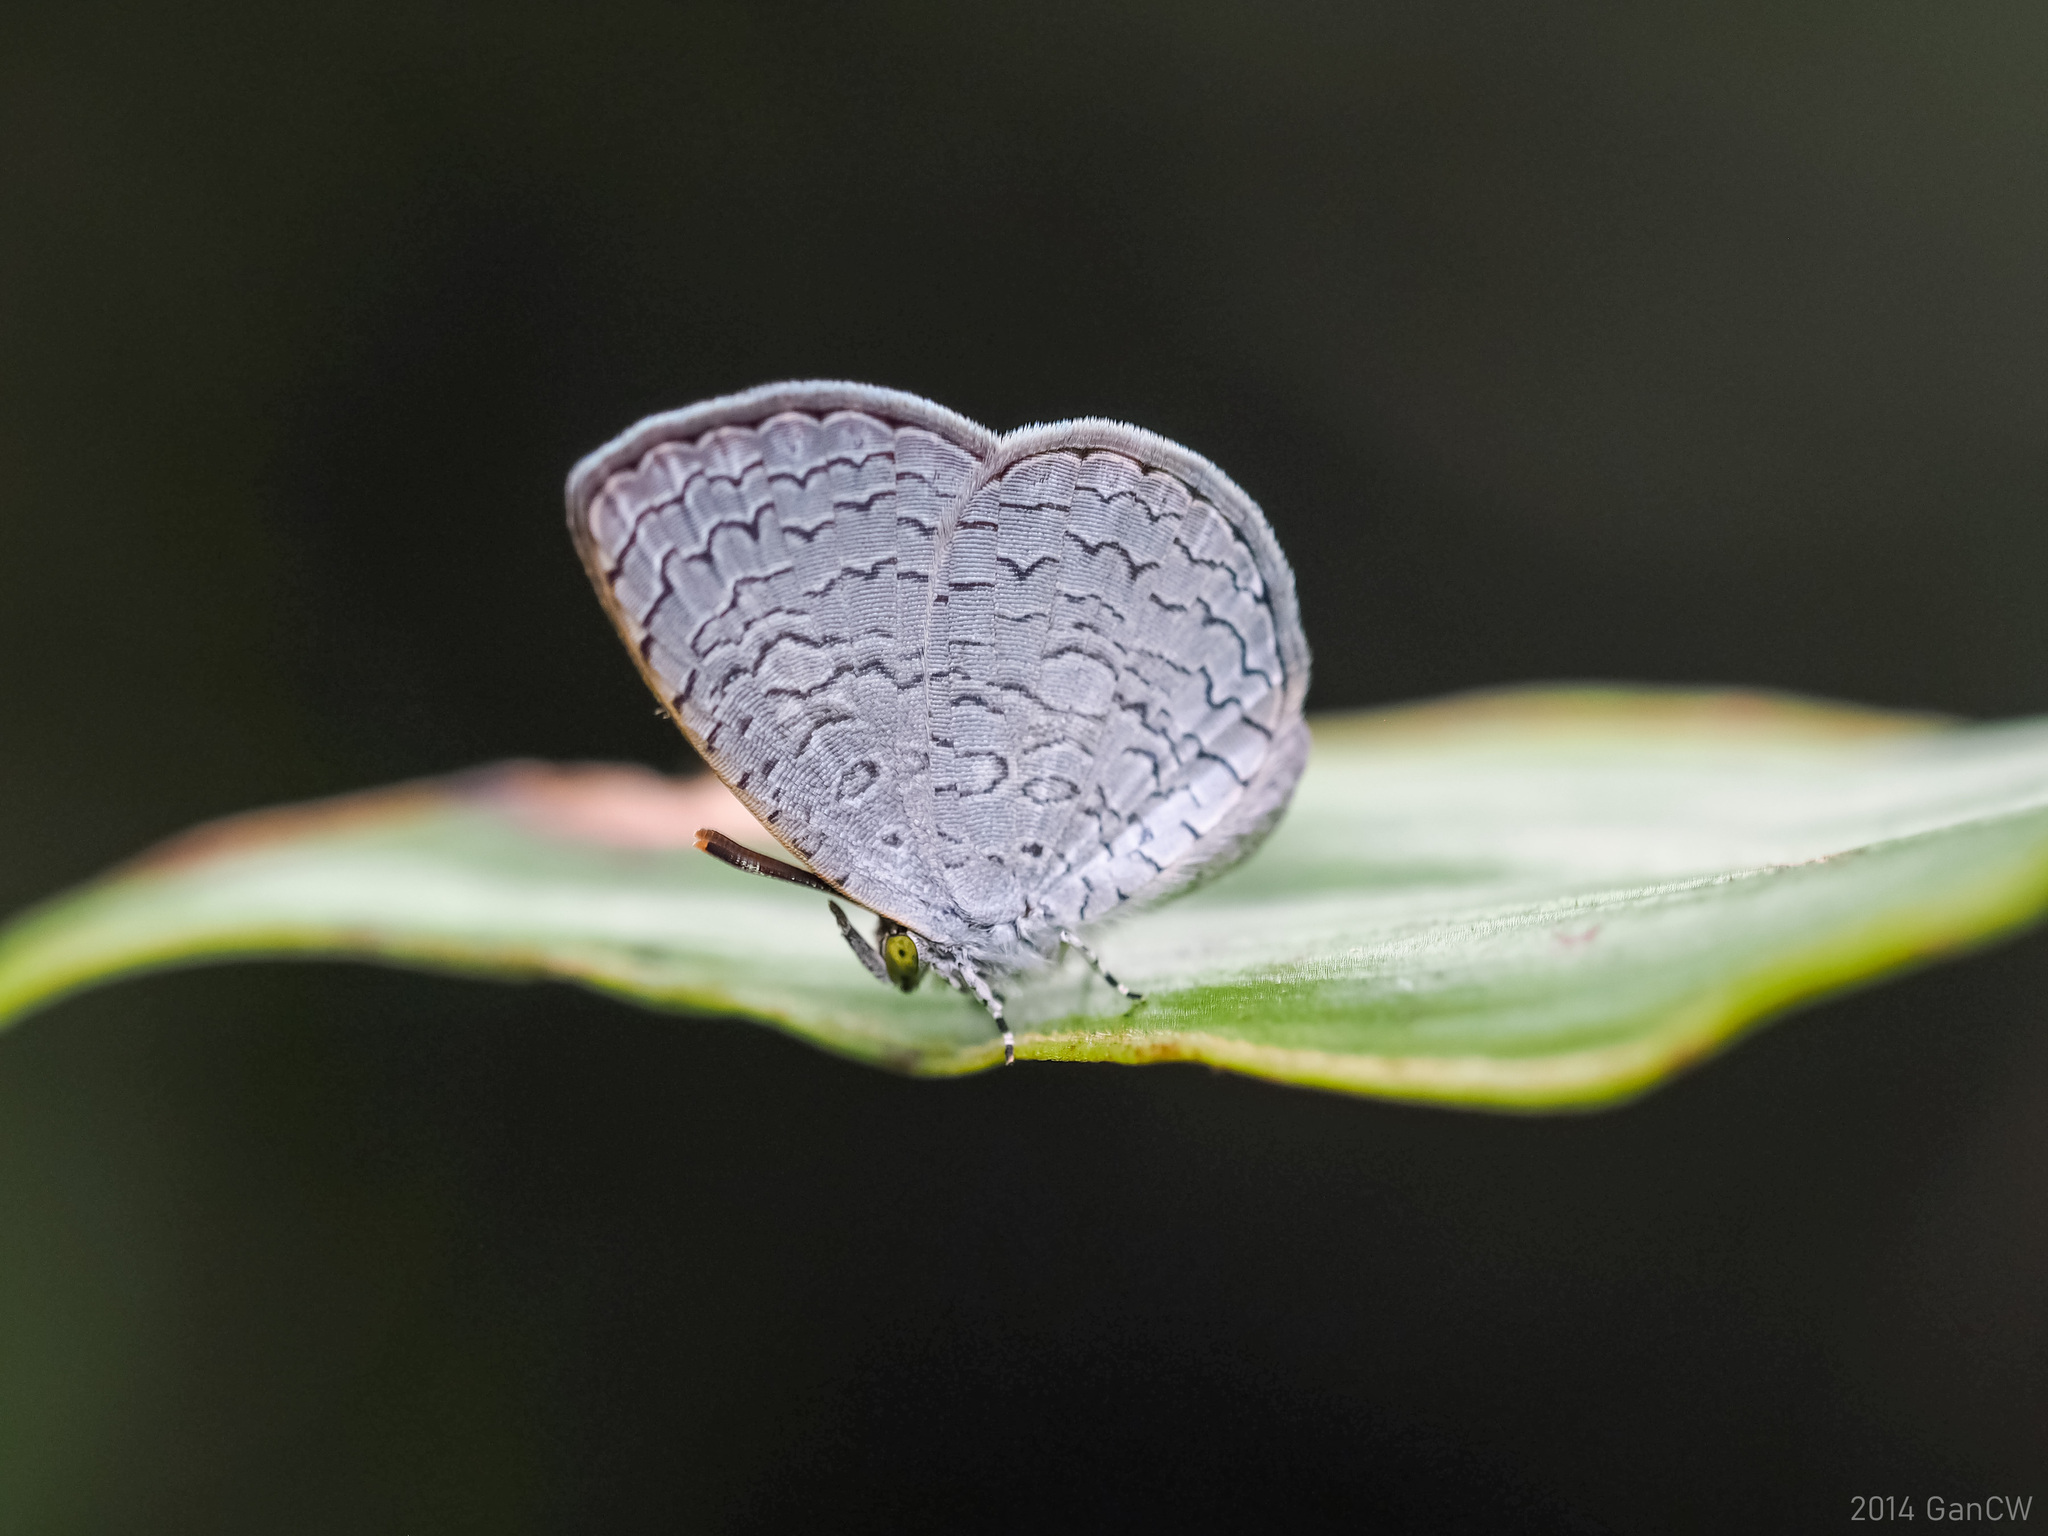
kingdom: Animalia
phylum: Arthropoda
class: Insecta
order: Lepidoptera
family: Lycaenidae
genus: Spalgis
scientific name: Spalgis epius
